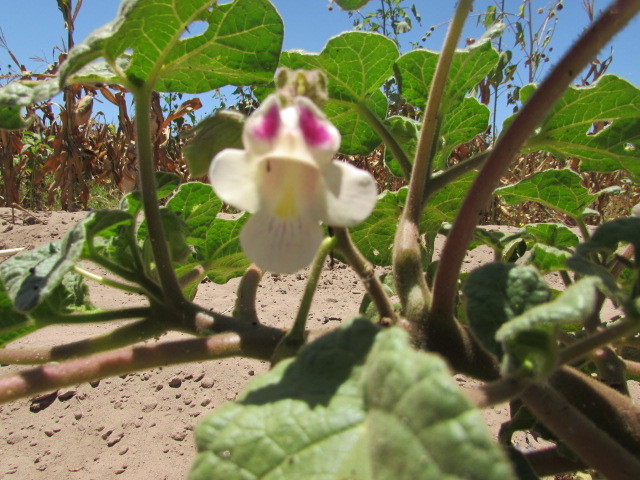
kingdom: Plantae
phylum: Tracheophyta
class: Magnoliopsida
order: Lamiales
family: Martyniaceae
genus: Martynia
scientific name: Martynia annua
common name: Tiger's-claw
